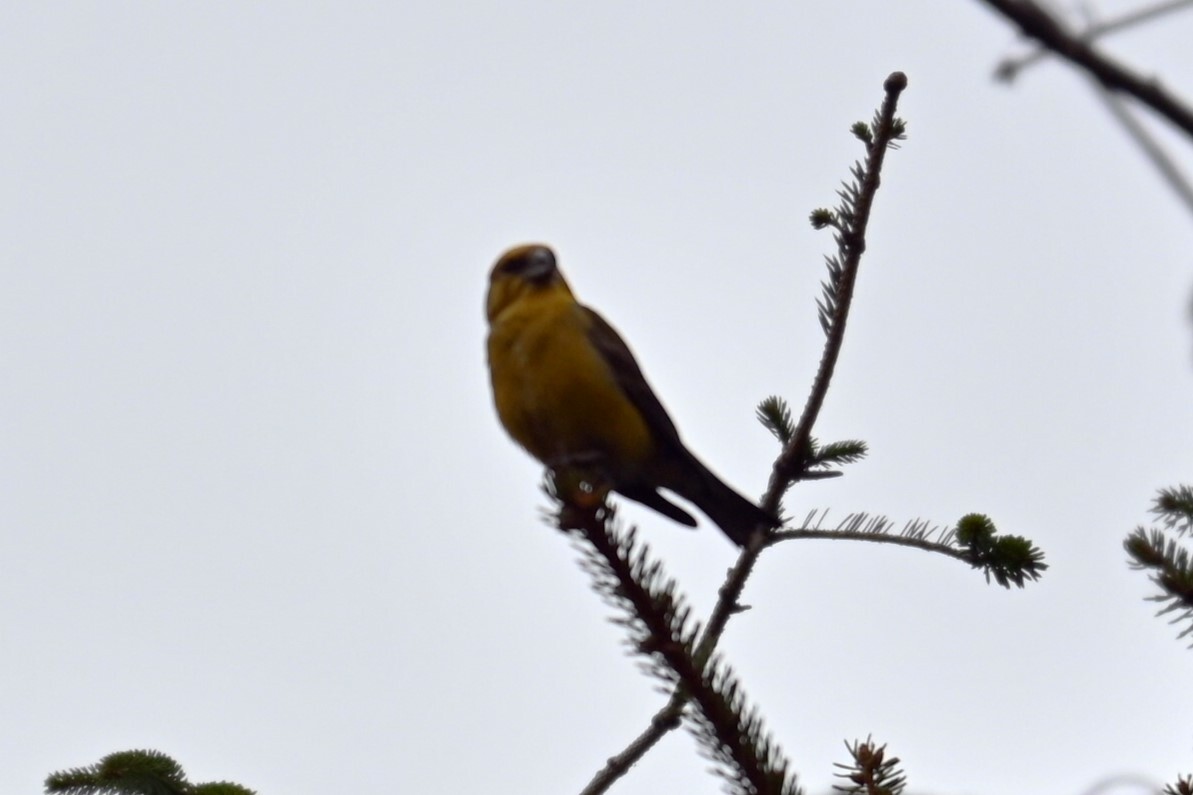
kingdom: Animalia
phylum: Chordata
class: Aves
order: Passeriformes
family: Fringillidae
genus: Loxia
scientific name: Loxia curvirostra
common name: Red crossbill
